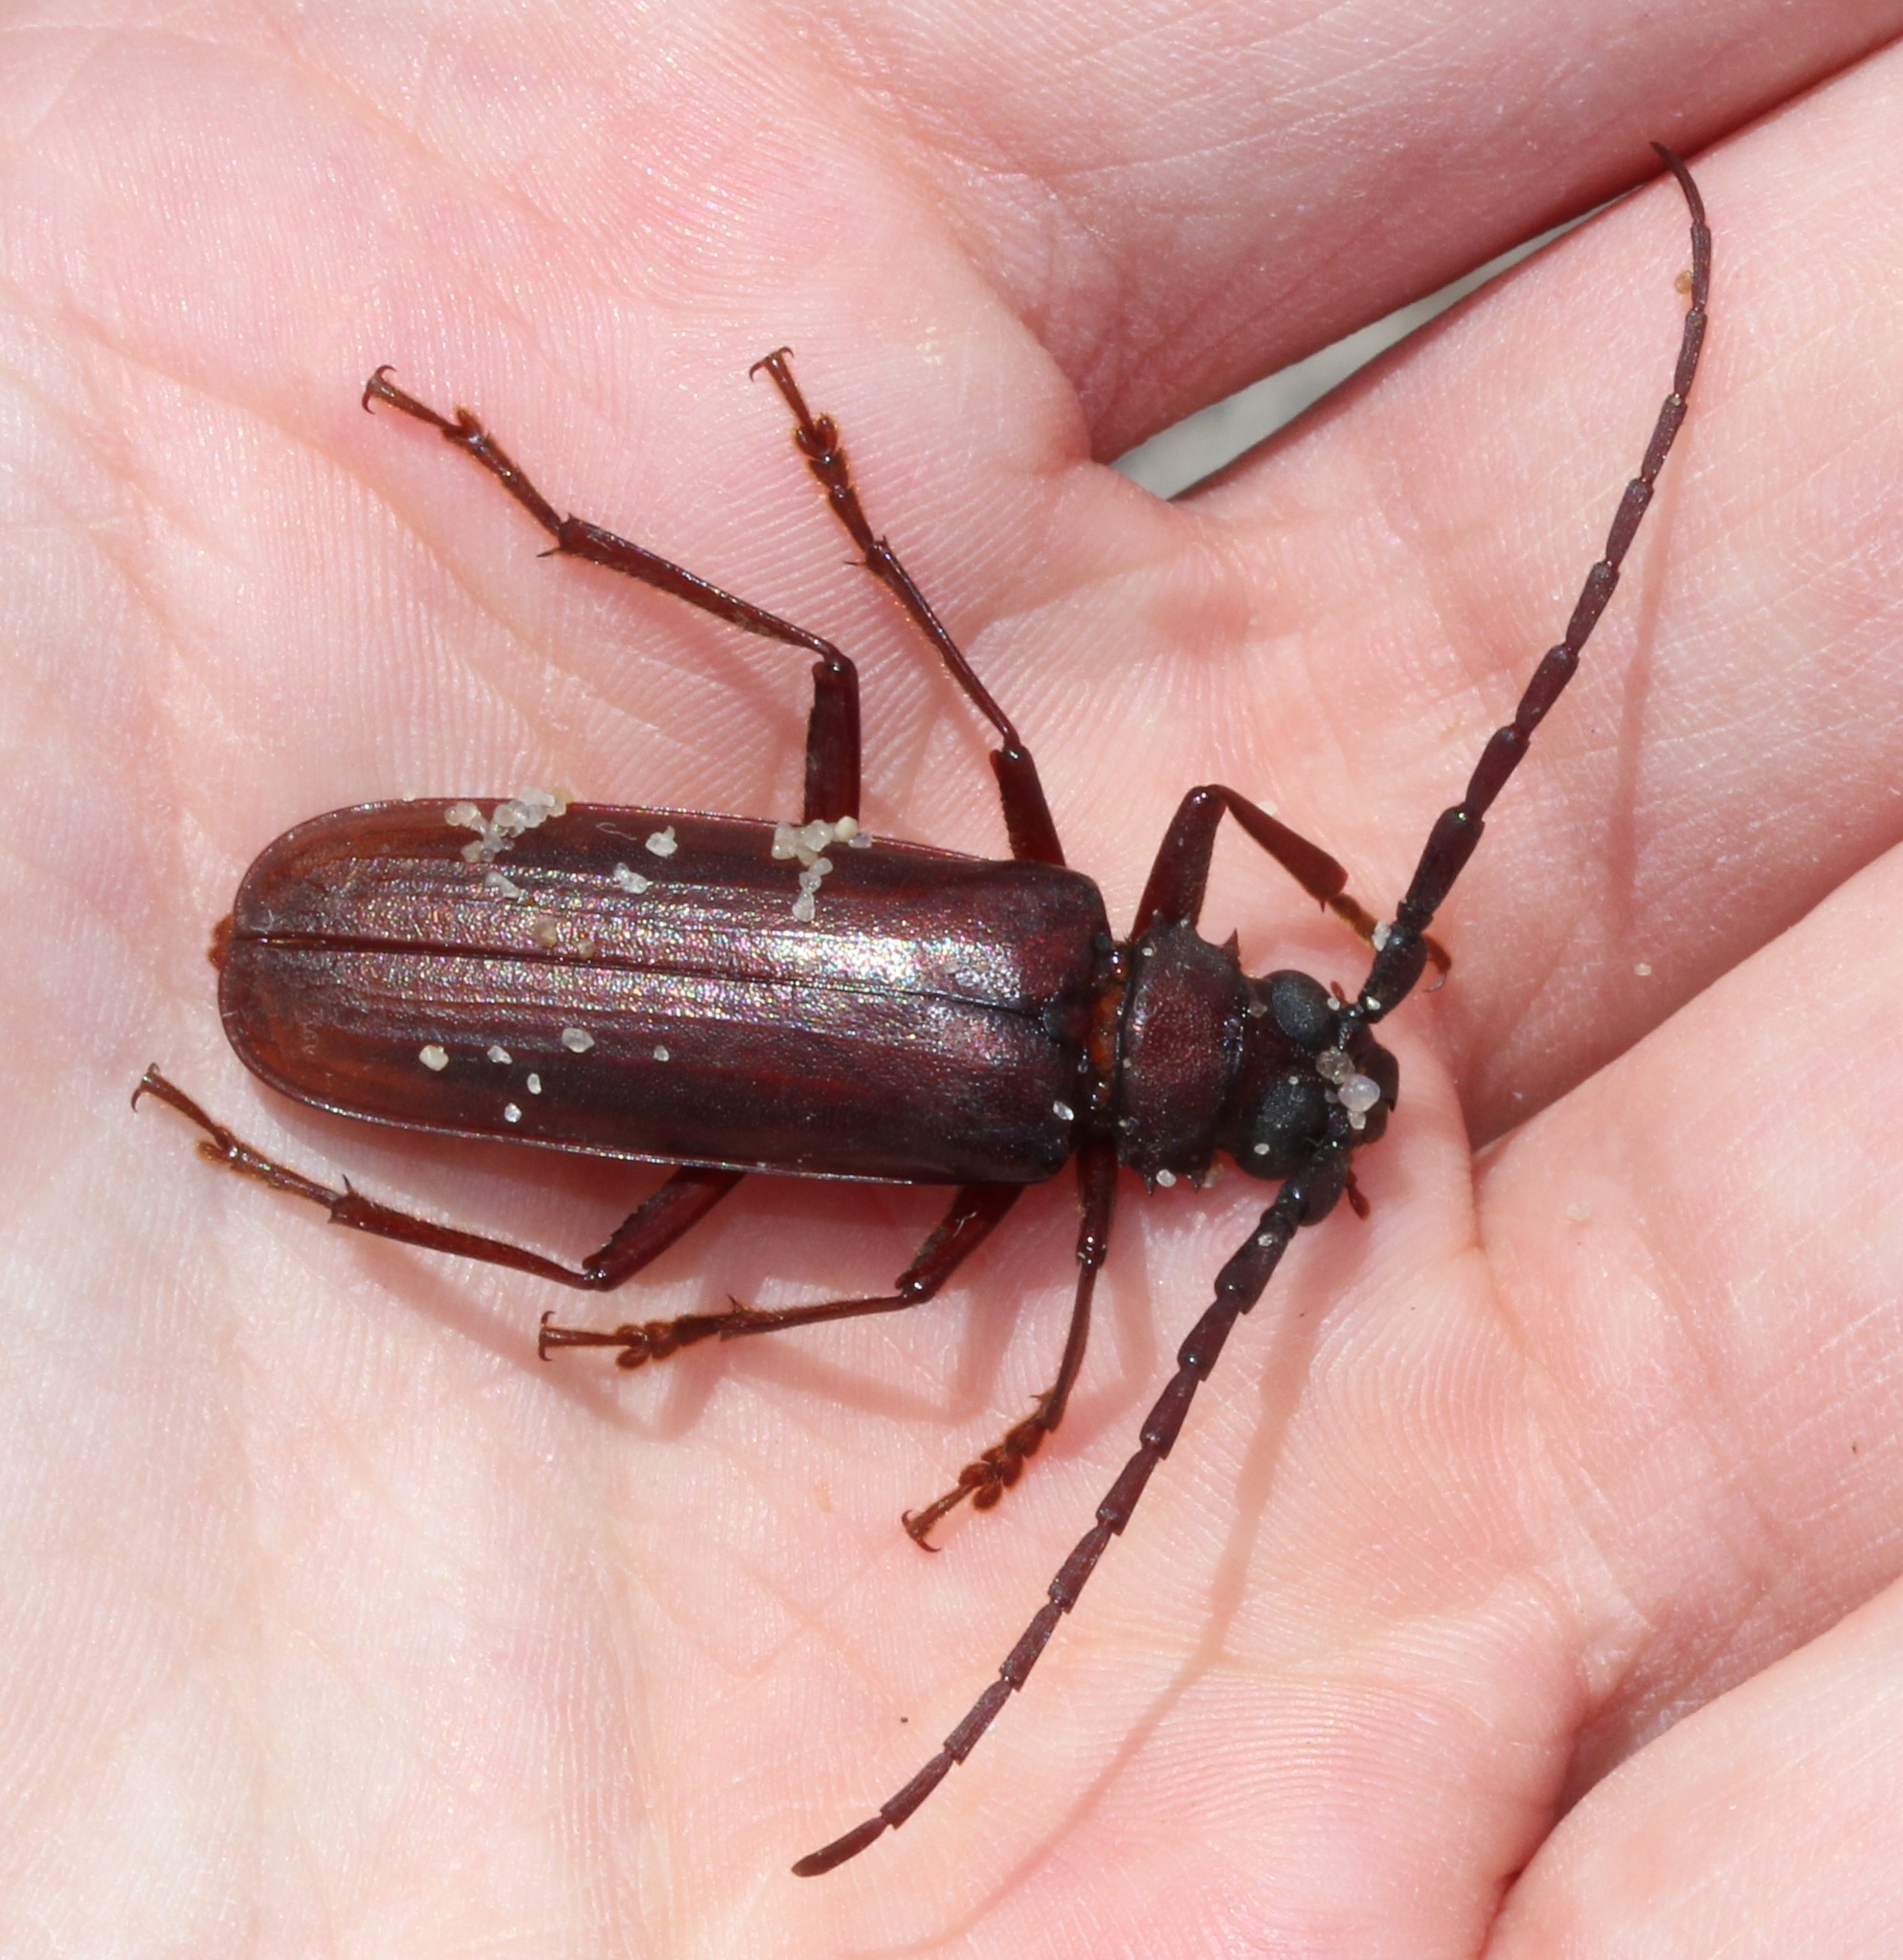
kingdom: Animalia
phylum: Arthropoda
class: Insecta
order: Coleoptera
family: Cerambycidae
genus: Orthosoma
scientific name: Orthosoma brunneum
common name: Brown prionid beetle
